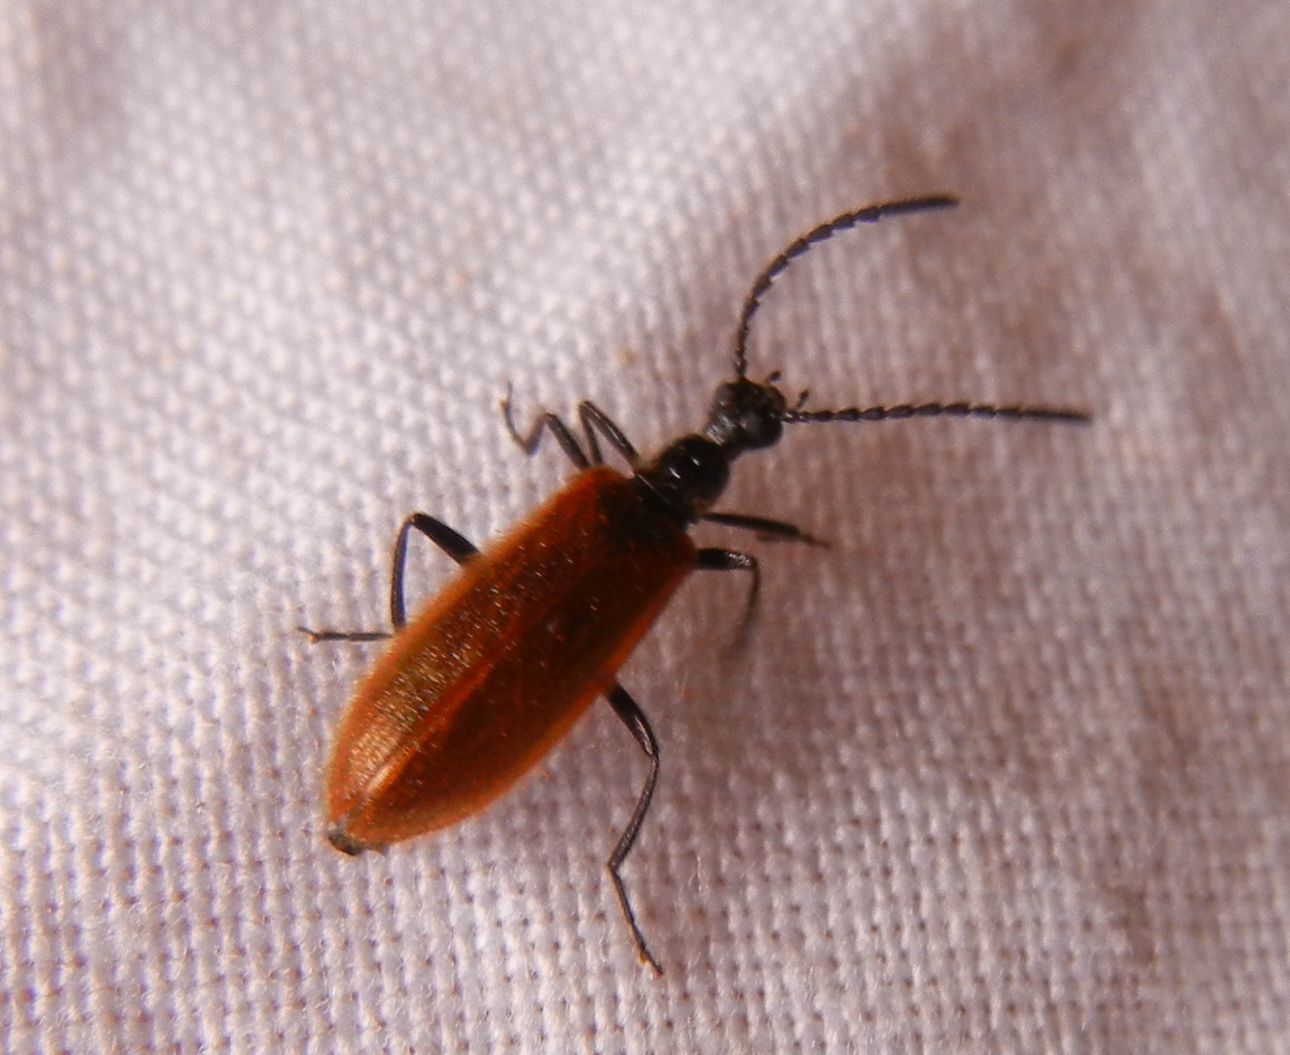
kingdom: Animalia
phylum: Arthropoda
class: Insecta
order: Coleoptera
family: Tenebrionidae
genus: Lagria
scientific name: Lagria hirta
